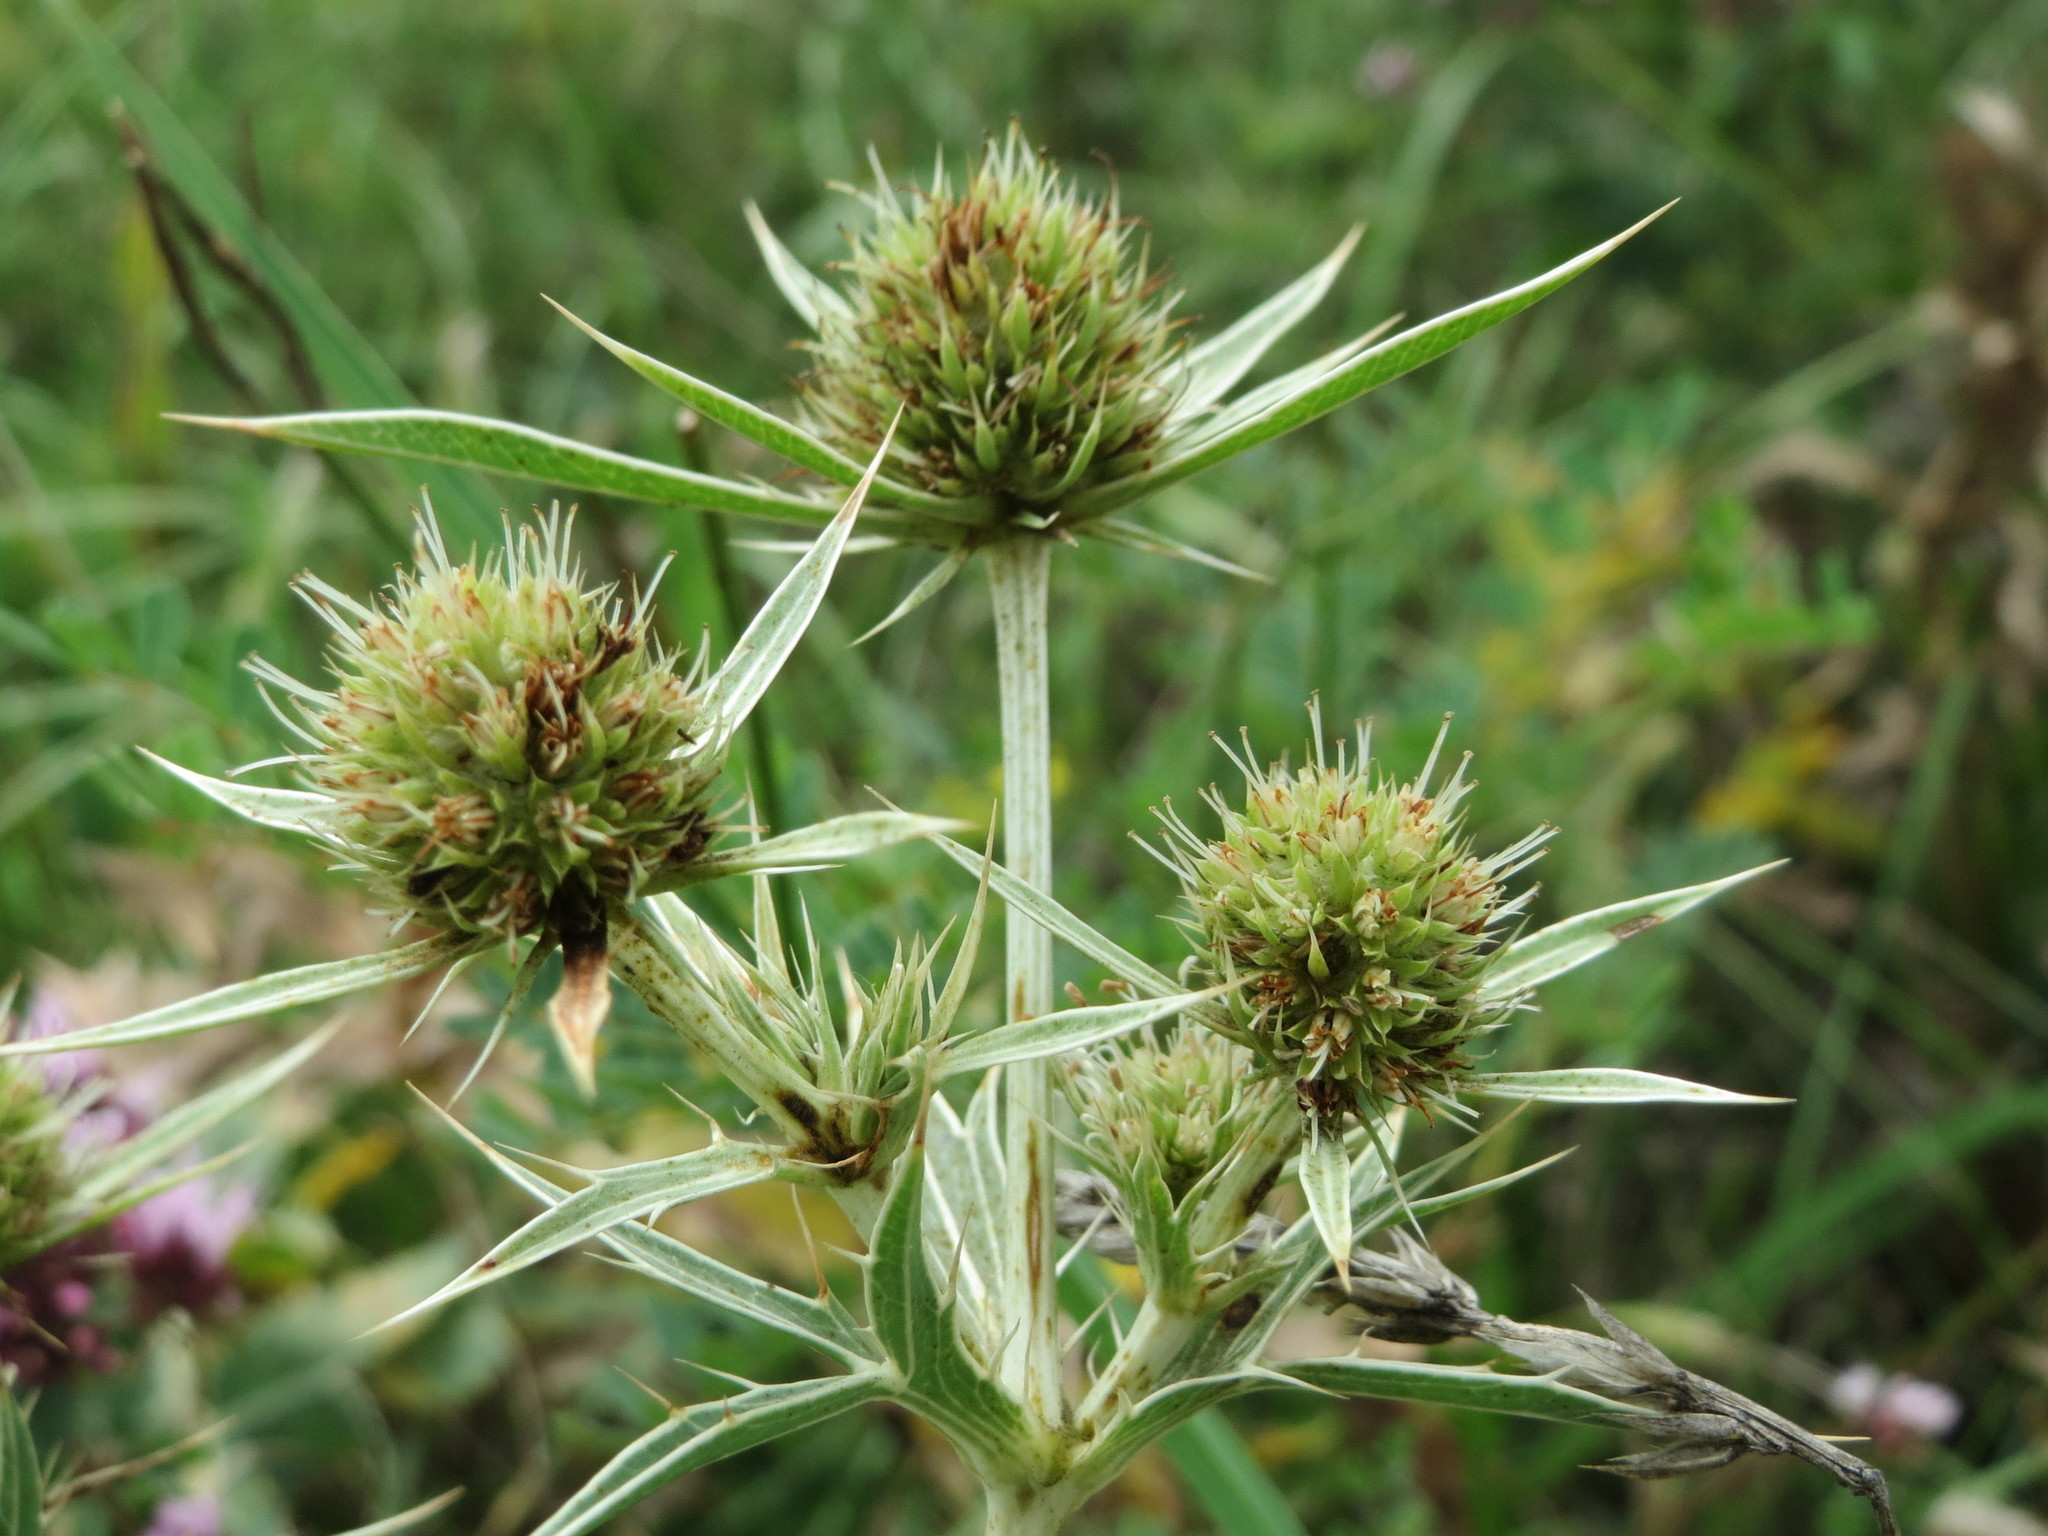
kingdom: Plantae
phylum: Tracheophyta
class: Magnoliopsida
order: Apiales
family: Apiaceae
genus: Eryngium
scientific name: Eryngium campestre
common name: Field eryngo
